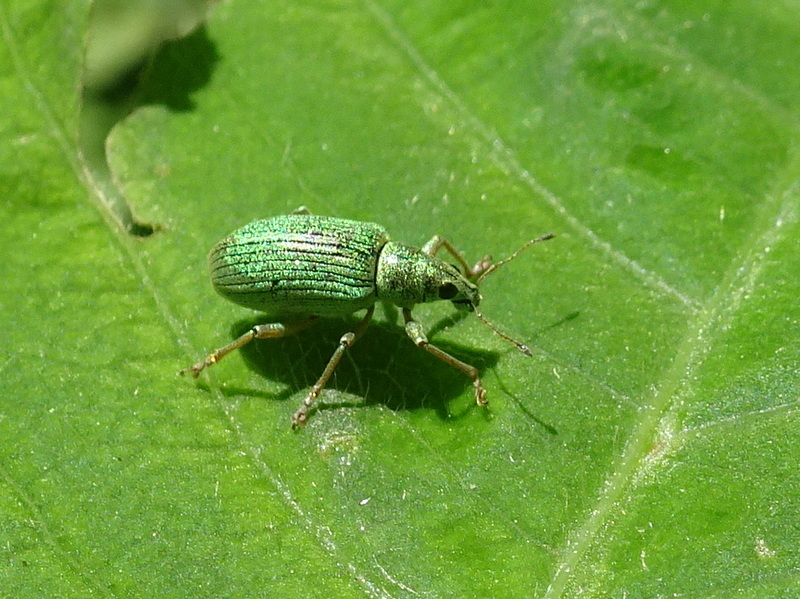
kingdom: Animalia
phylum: Arthropoda
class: Insecta
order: Coleoptera
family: Curculionidae
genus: Polydrusus
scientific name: Polydrusus formosus
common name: Weevil
